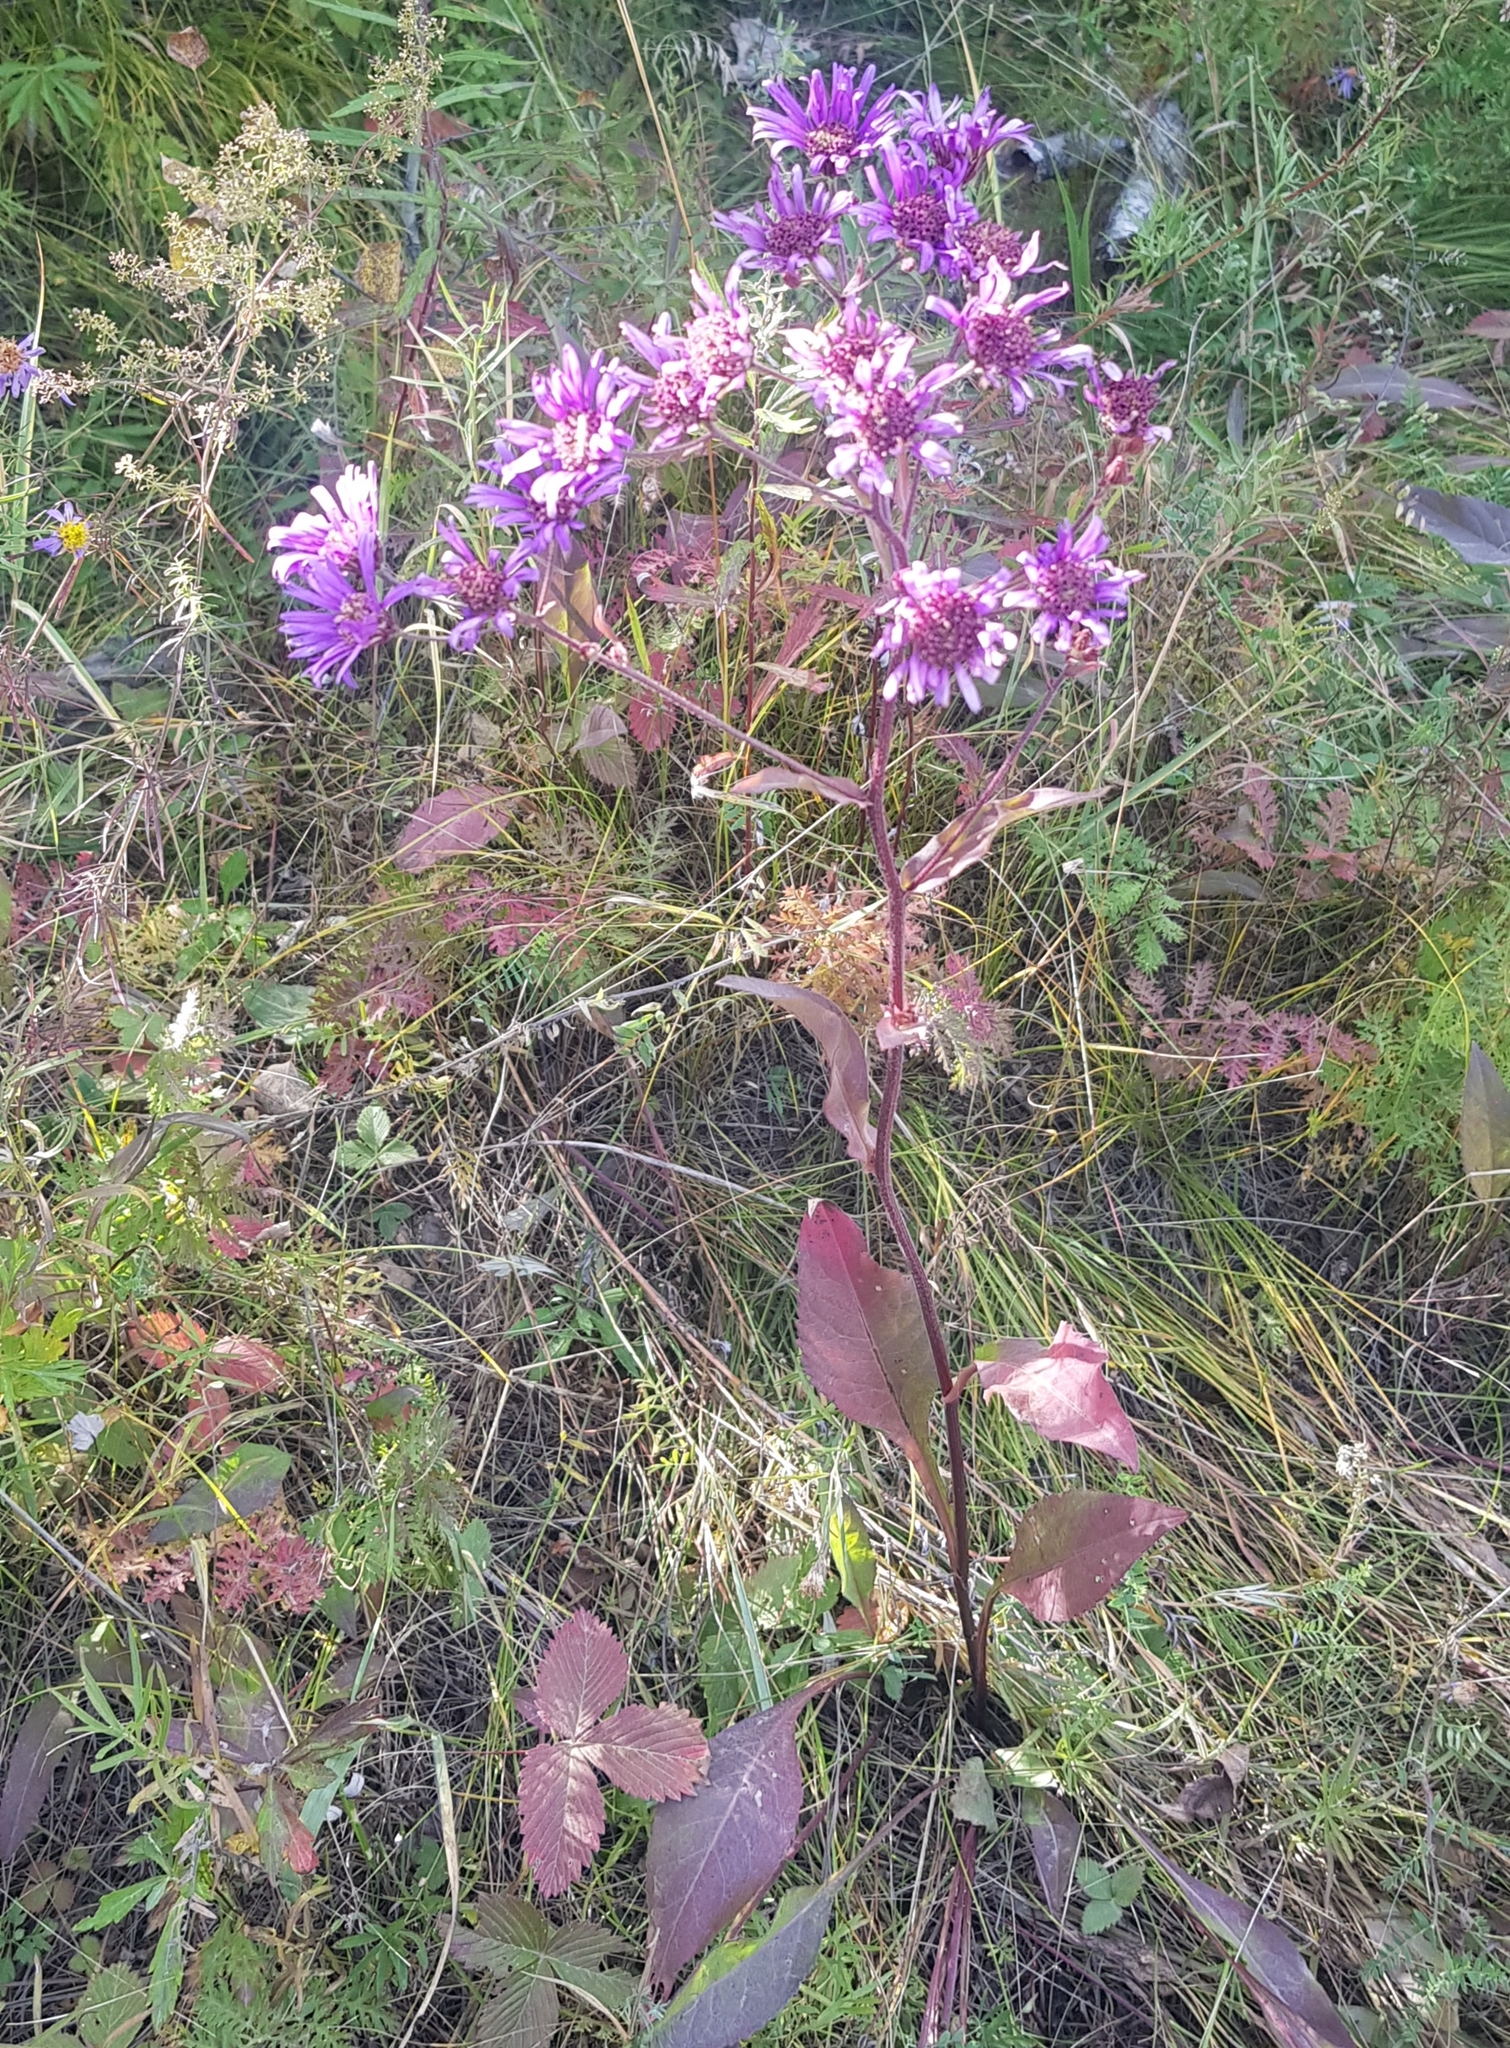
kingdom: Plantae
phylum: Tracheophyta
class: Magnoliopsida
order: Asterales
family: Asteraceae
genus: Aster
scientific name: Aster tataricus
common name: Tatarian aster
